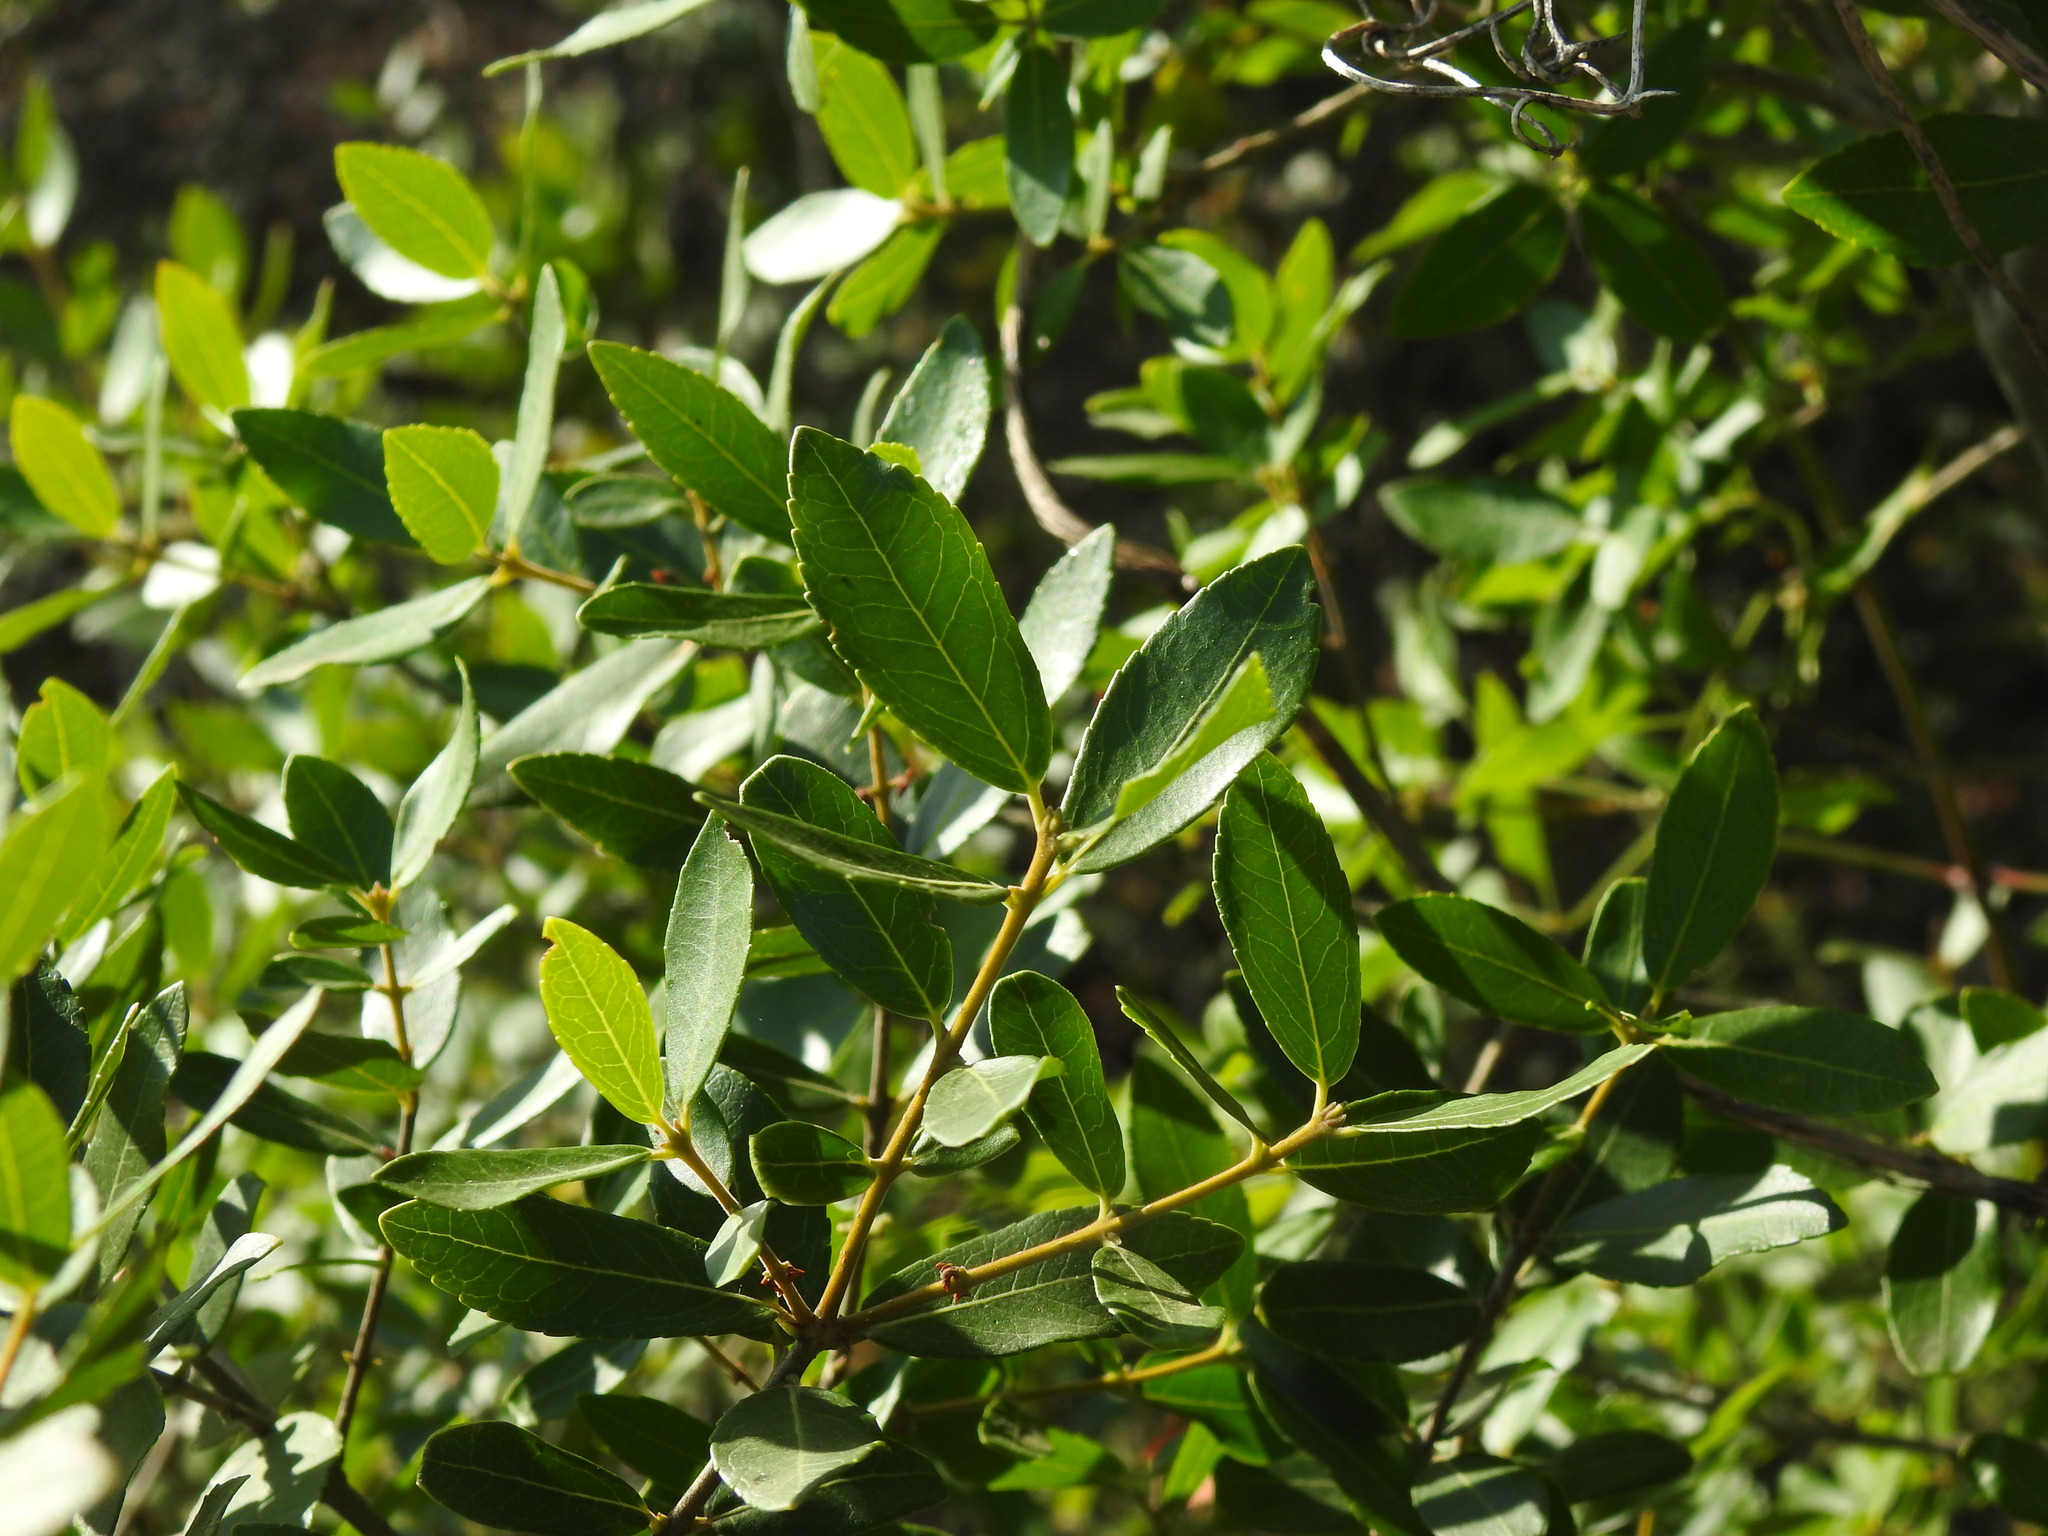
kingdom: Plantae
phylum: Tracheophyta
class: Magnoliopsida
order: Lamiales
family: Oleaceae
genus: Phillyrea
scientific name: Phillyrea latifolia
